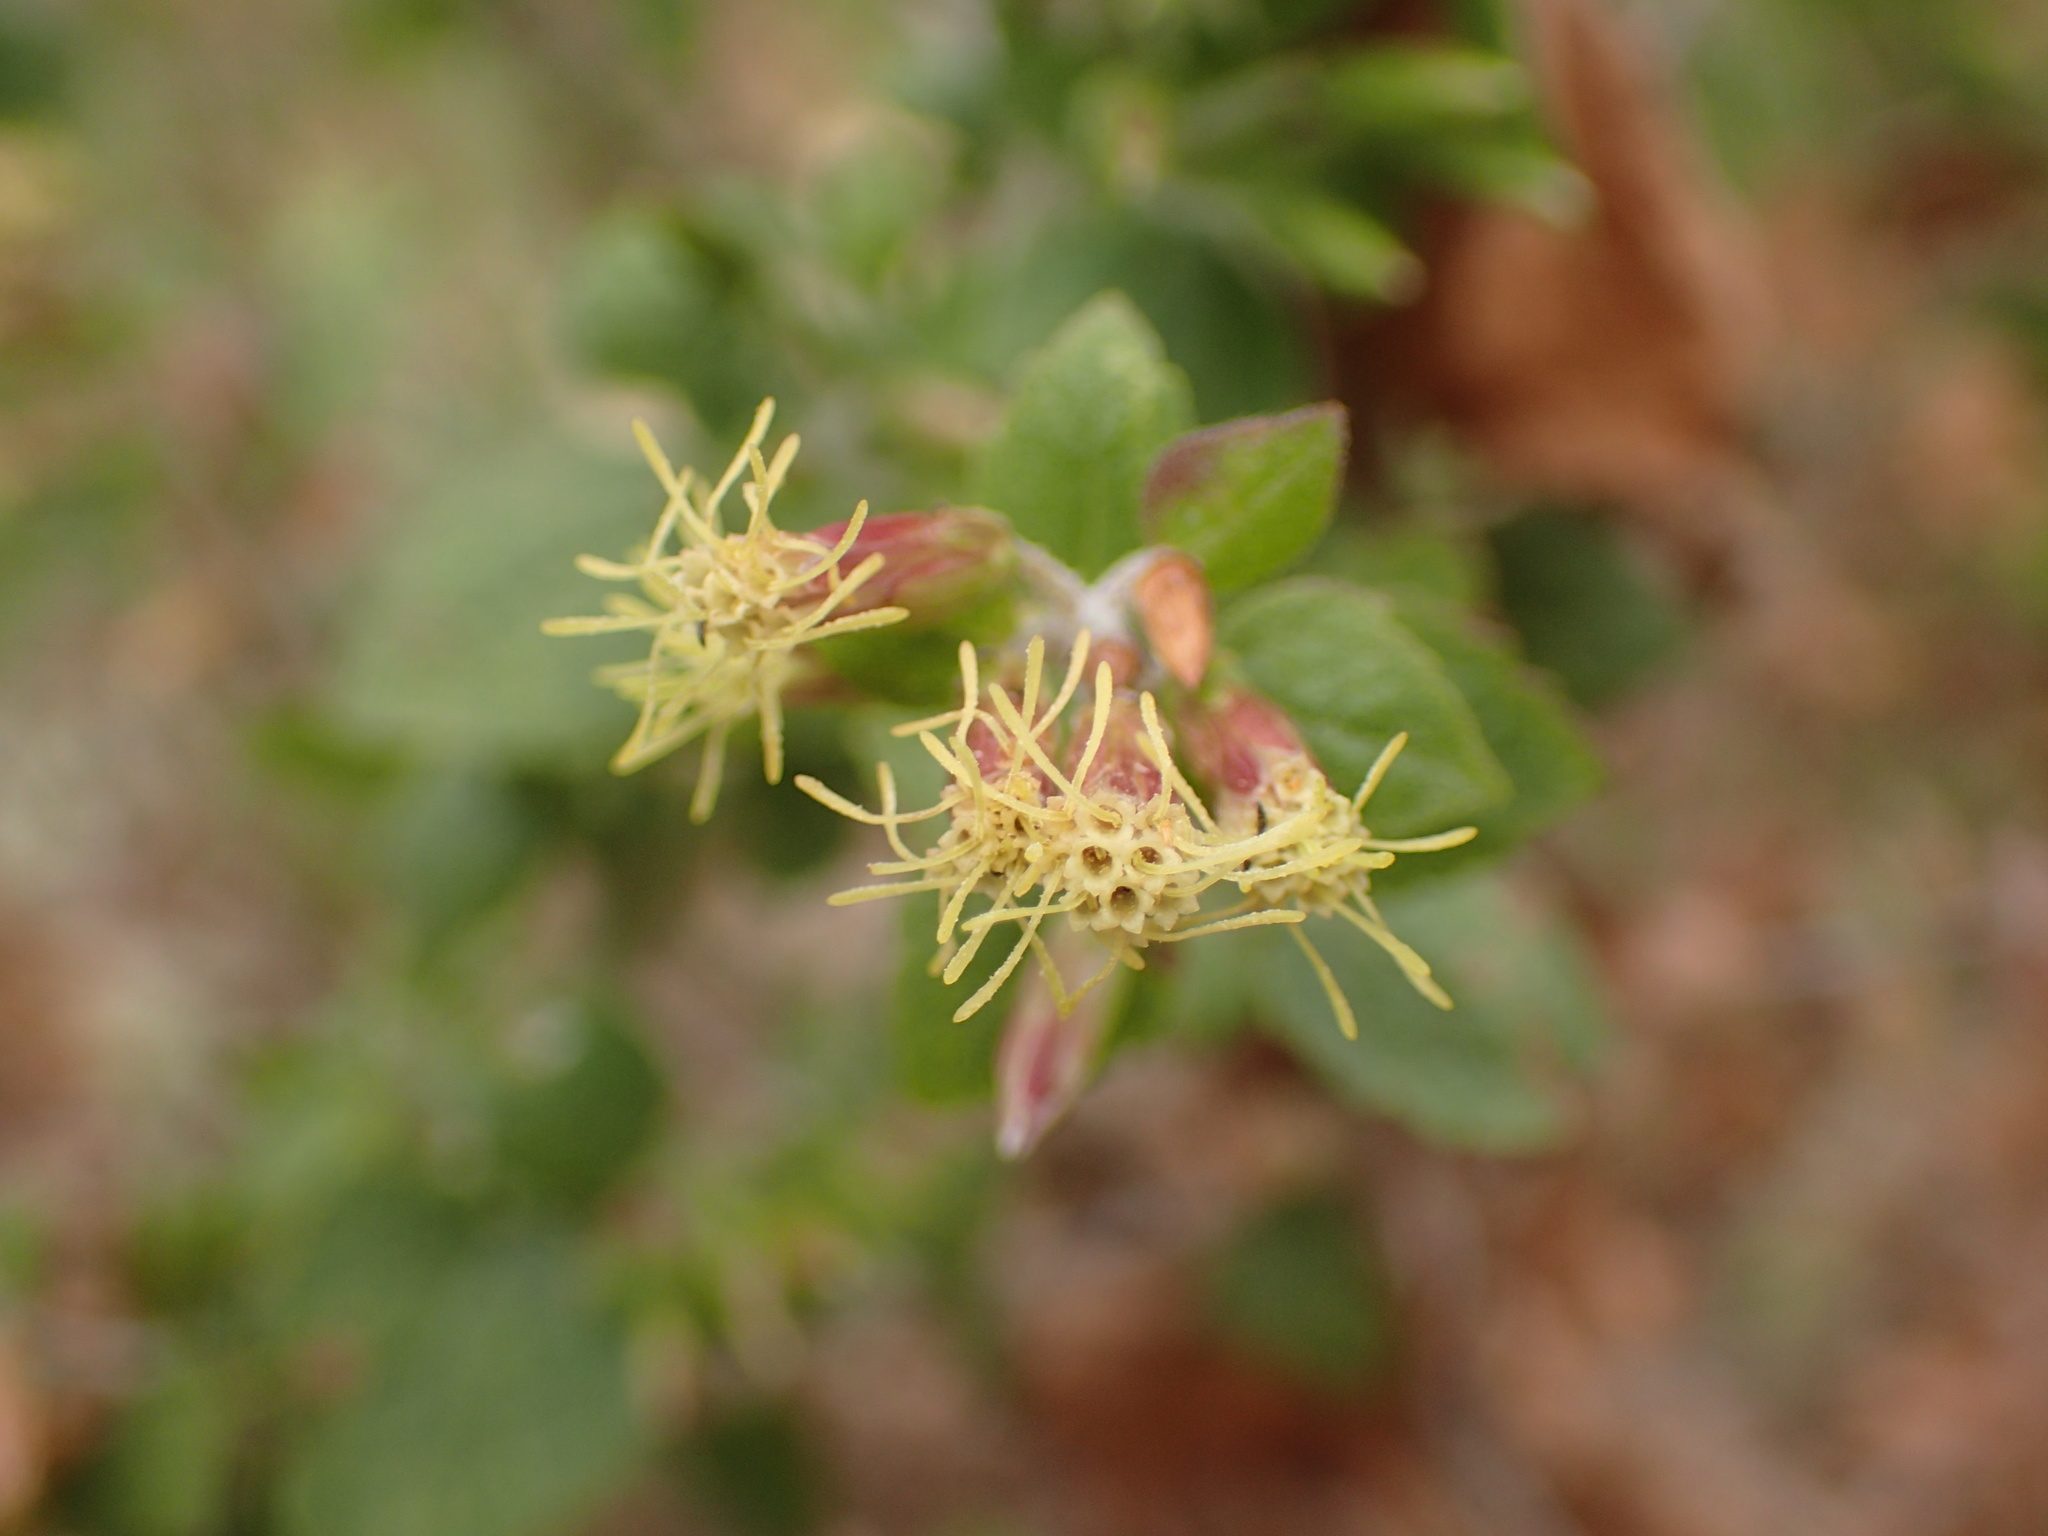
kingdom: Plantae
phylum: Tracheophyta
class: Magnoliopsida
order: Asterales
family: Asteraceae
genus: Brickellia
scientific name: Brickellia californica
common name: California brickellbush
